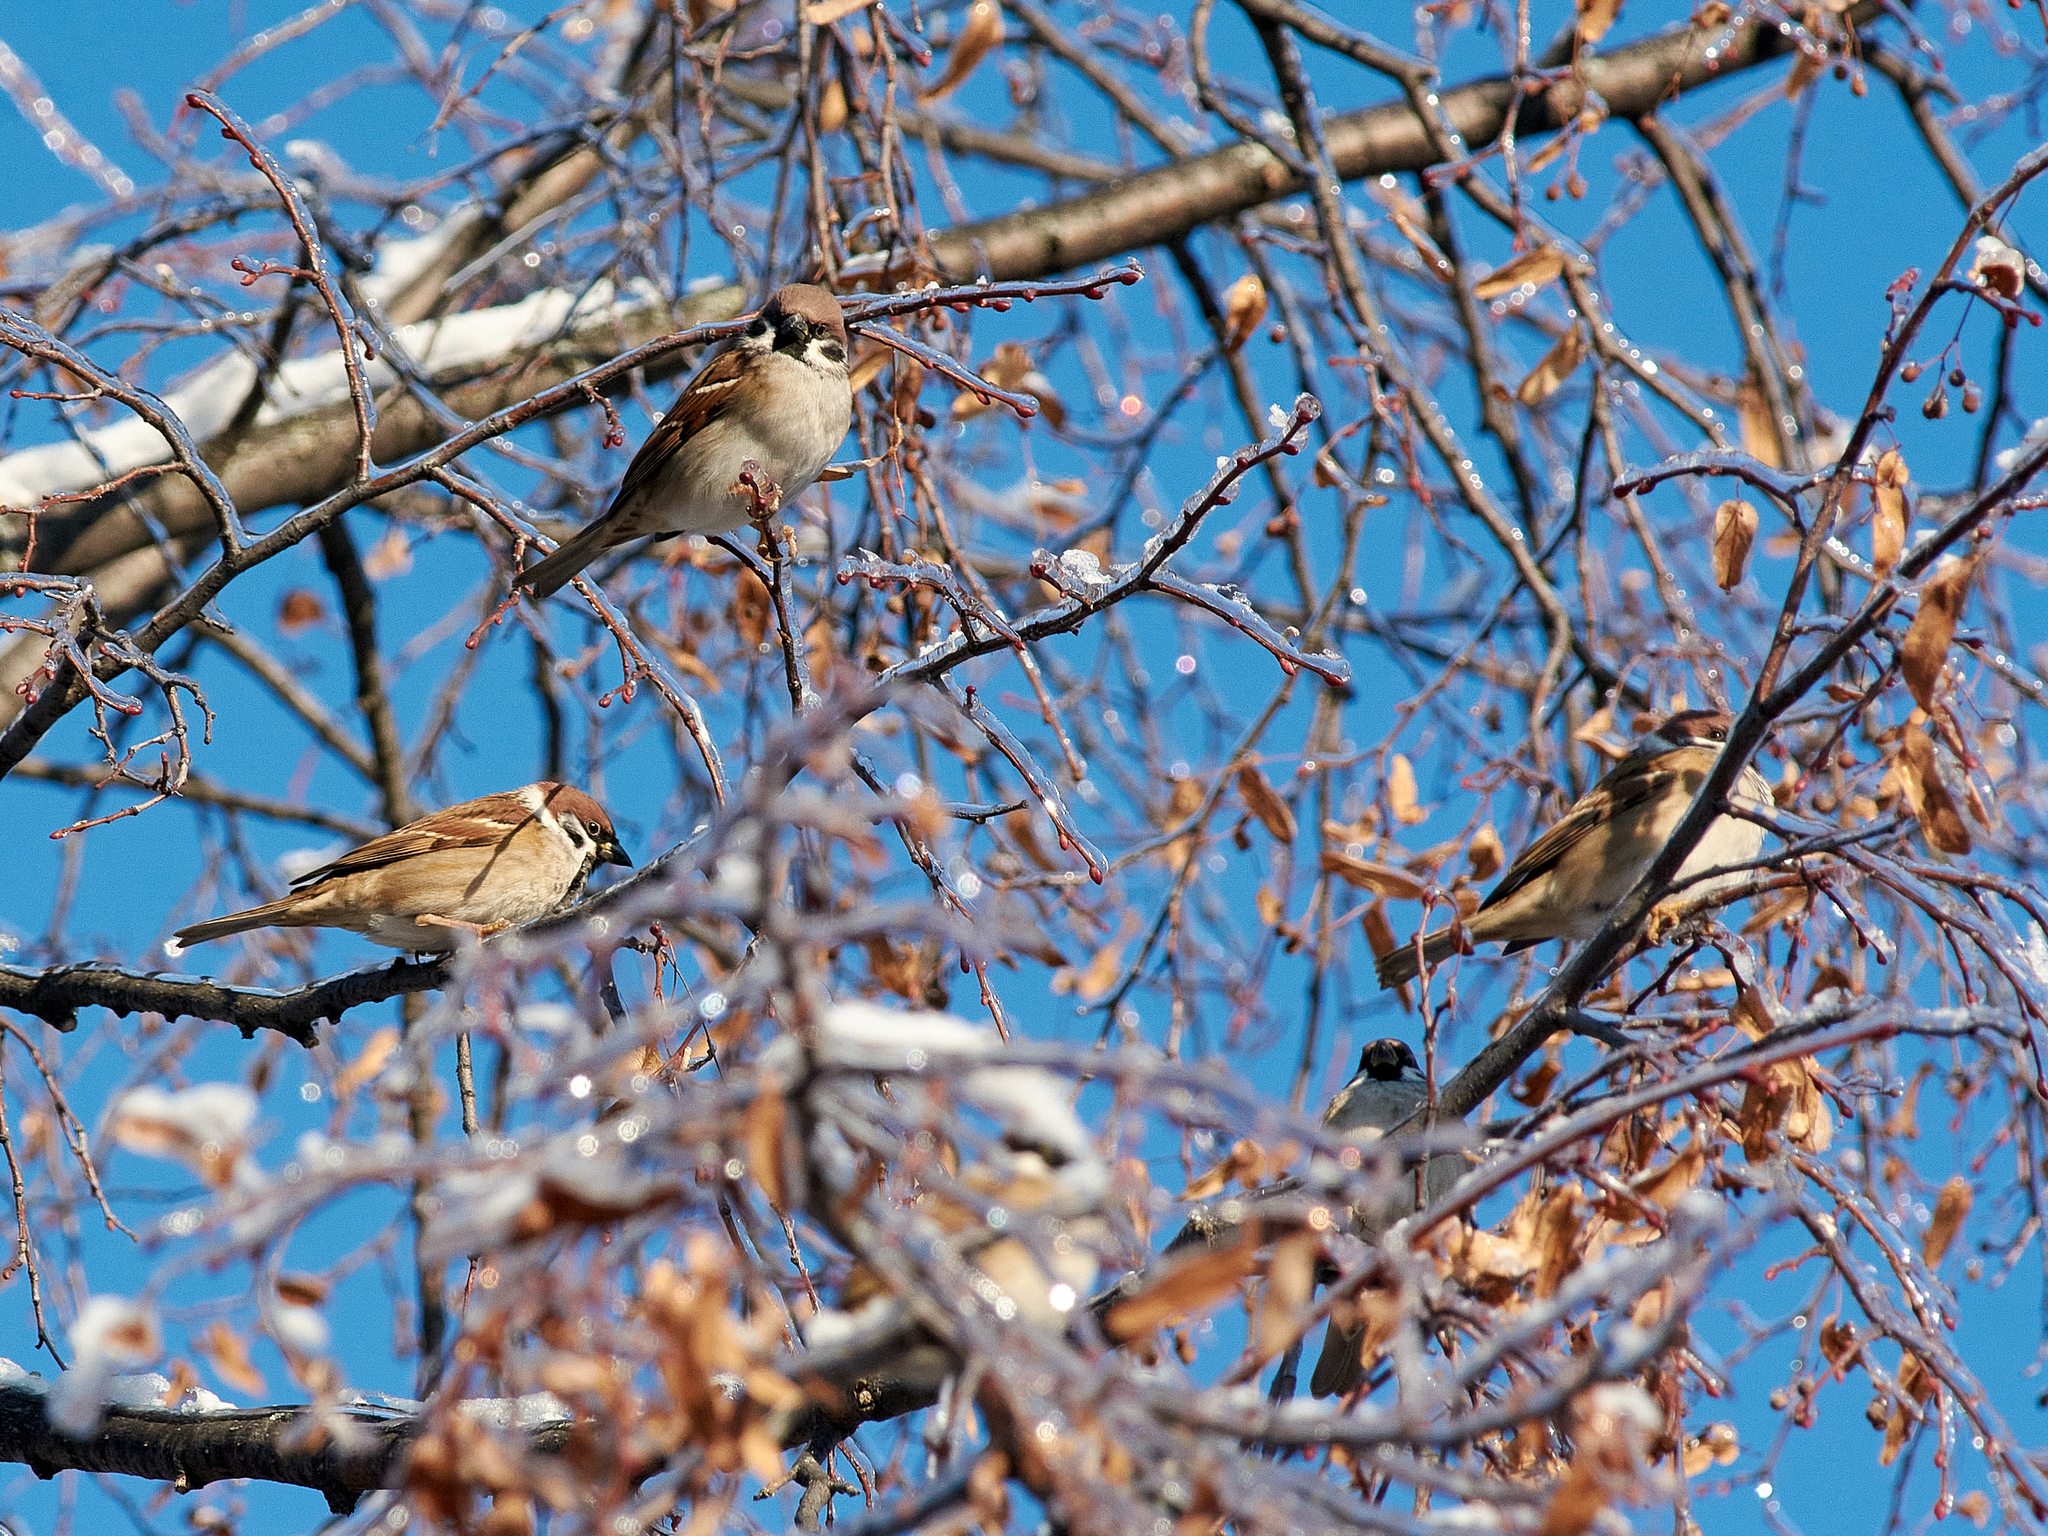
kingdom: Animalia
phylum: Chordata
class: Aves
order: Passeriformes
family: Passeridae
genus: Passer
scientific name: Passer montanus
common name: Eurasian tree sparrow
